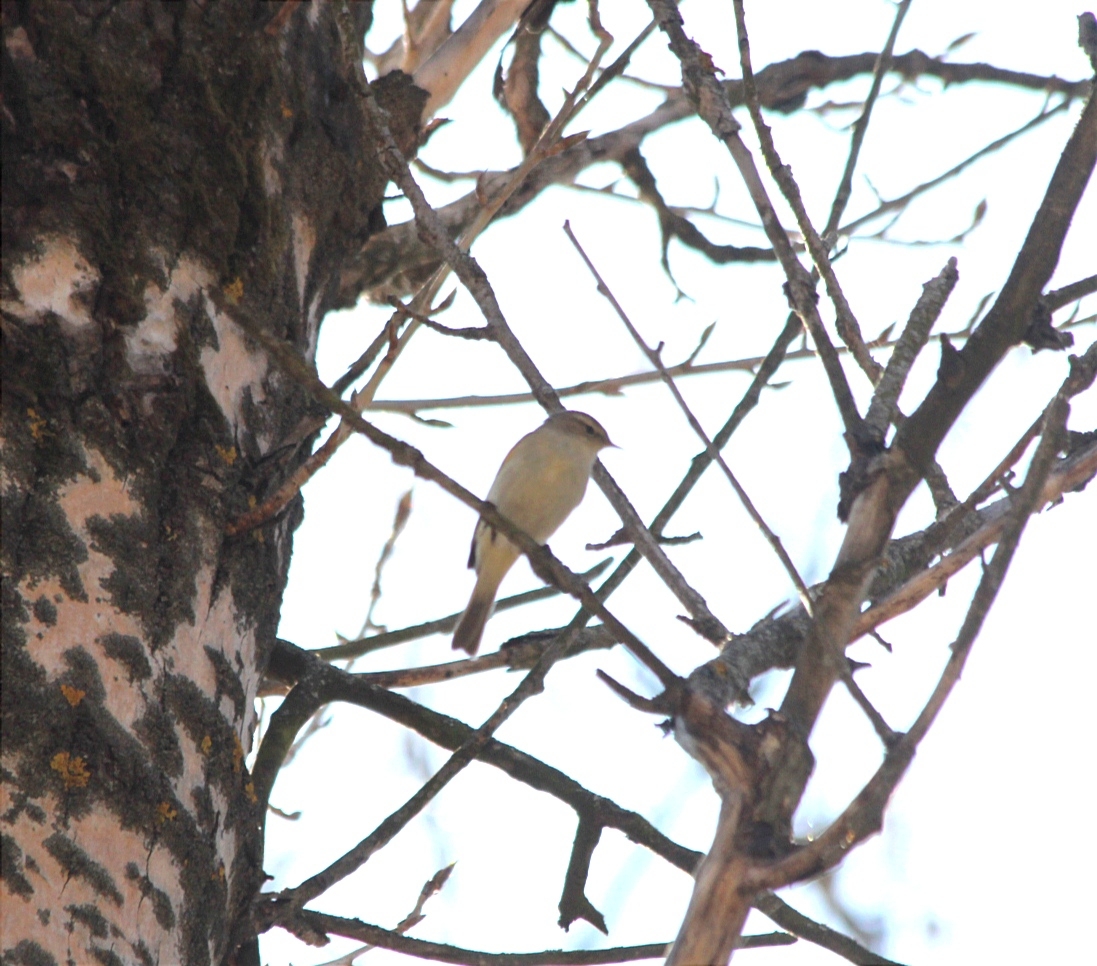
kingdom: Animalia
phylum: Chordata
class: Aves
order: Passeriformes
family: Phylloscopidae
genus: Phylloscopus
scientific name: Phylloscopus collybita
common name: Common chiffchaff
